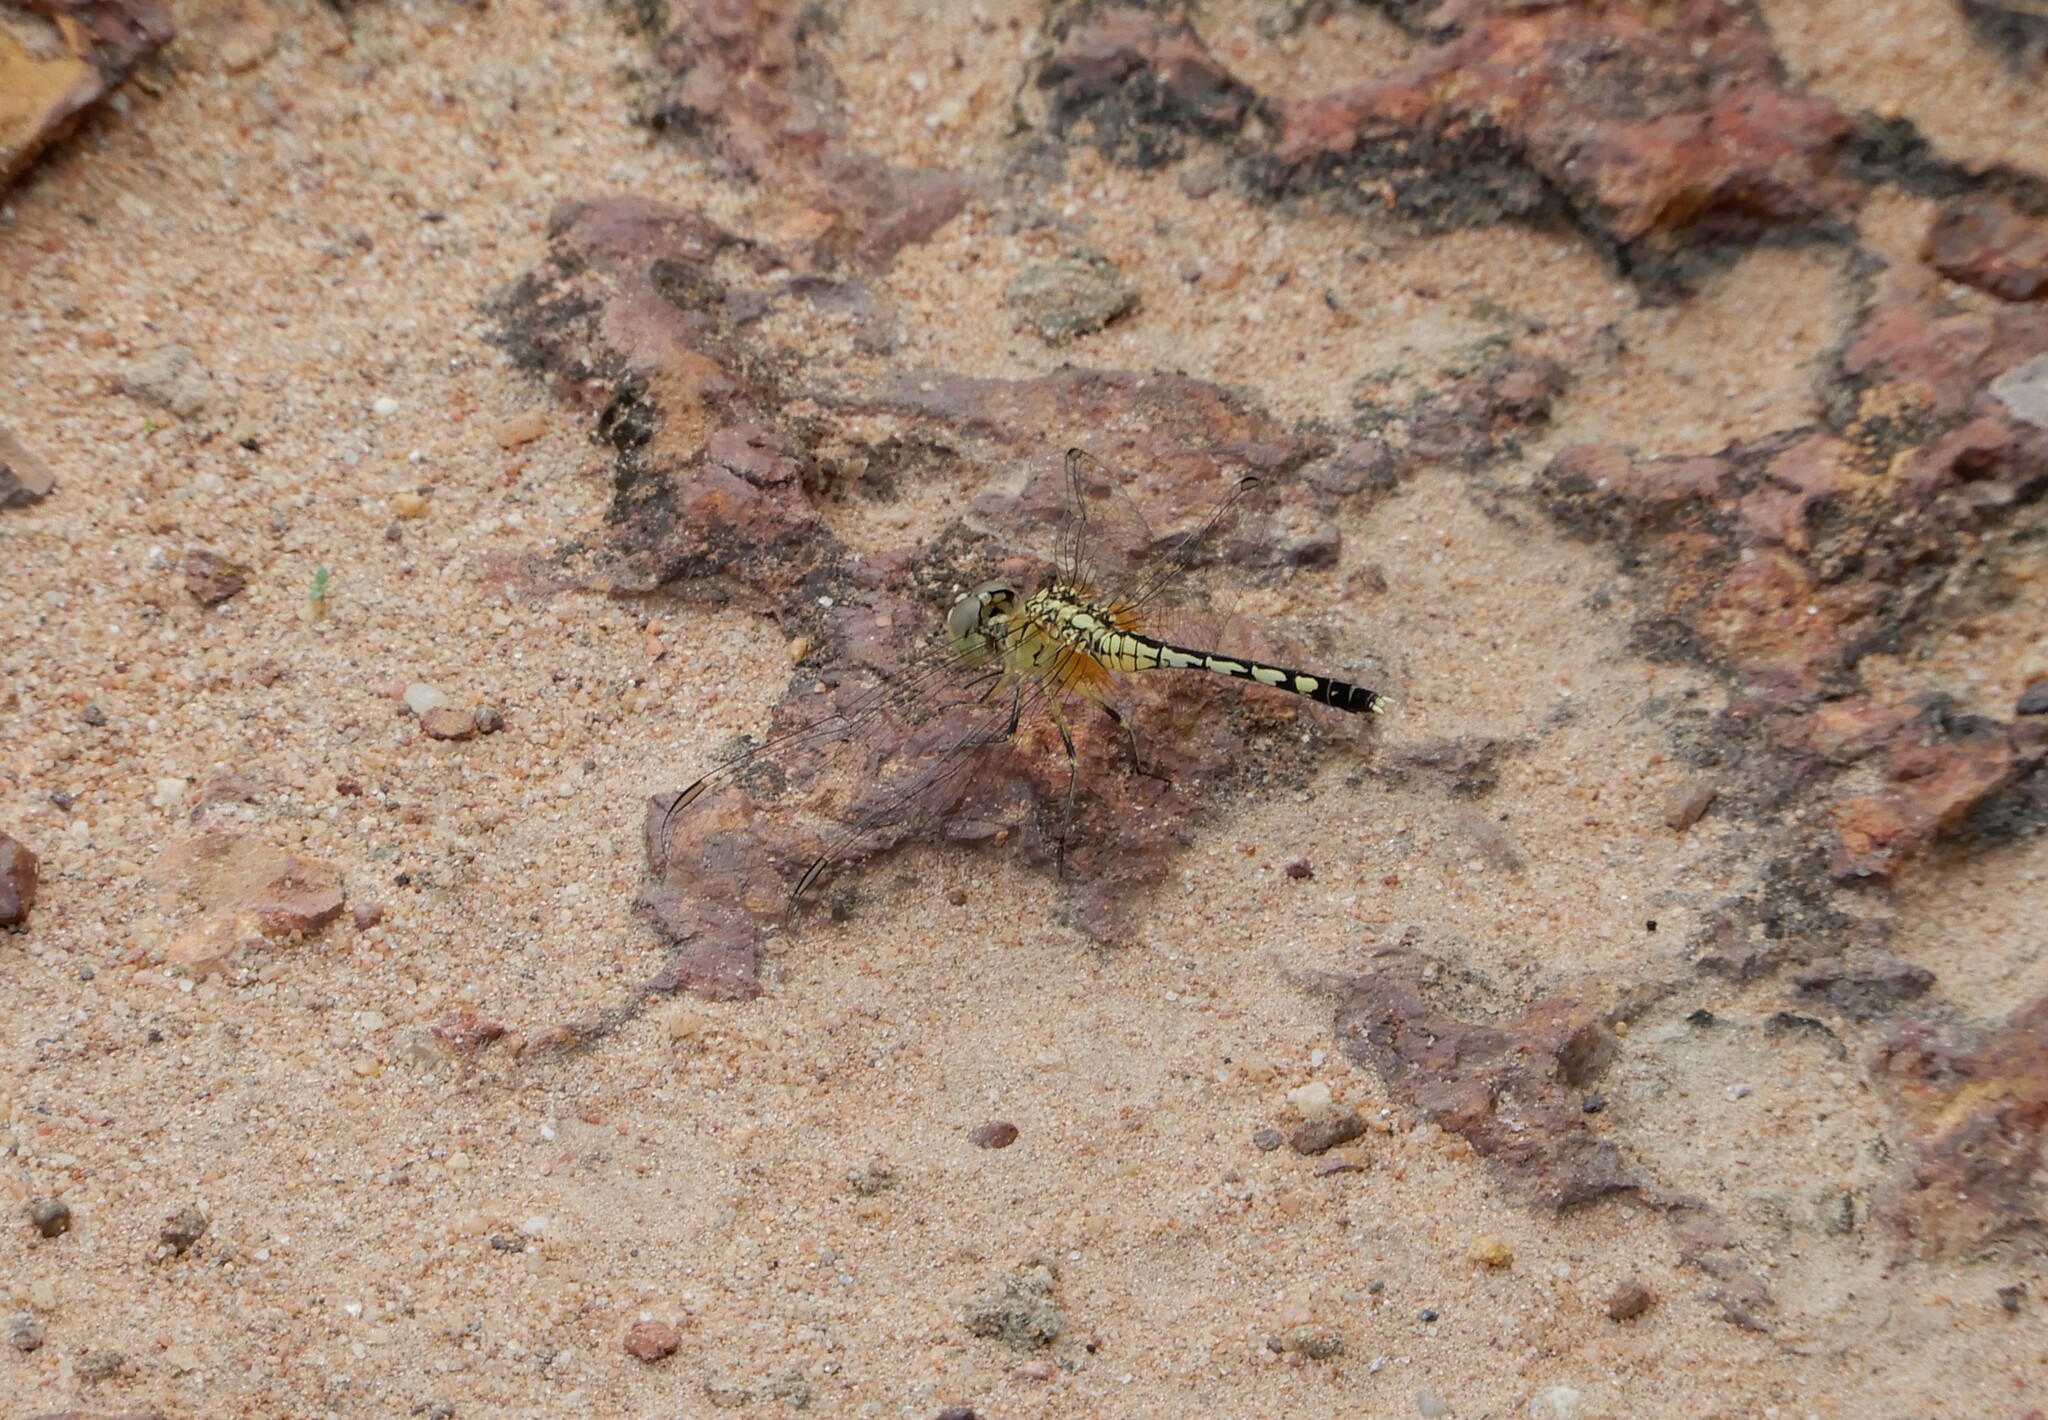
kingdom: Animalia
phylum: Arthropoda
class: Insecta
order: Odonata
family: Libellulidae
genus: Diplacodes
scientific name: Diplacodes trivialis
